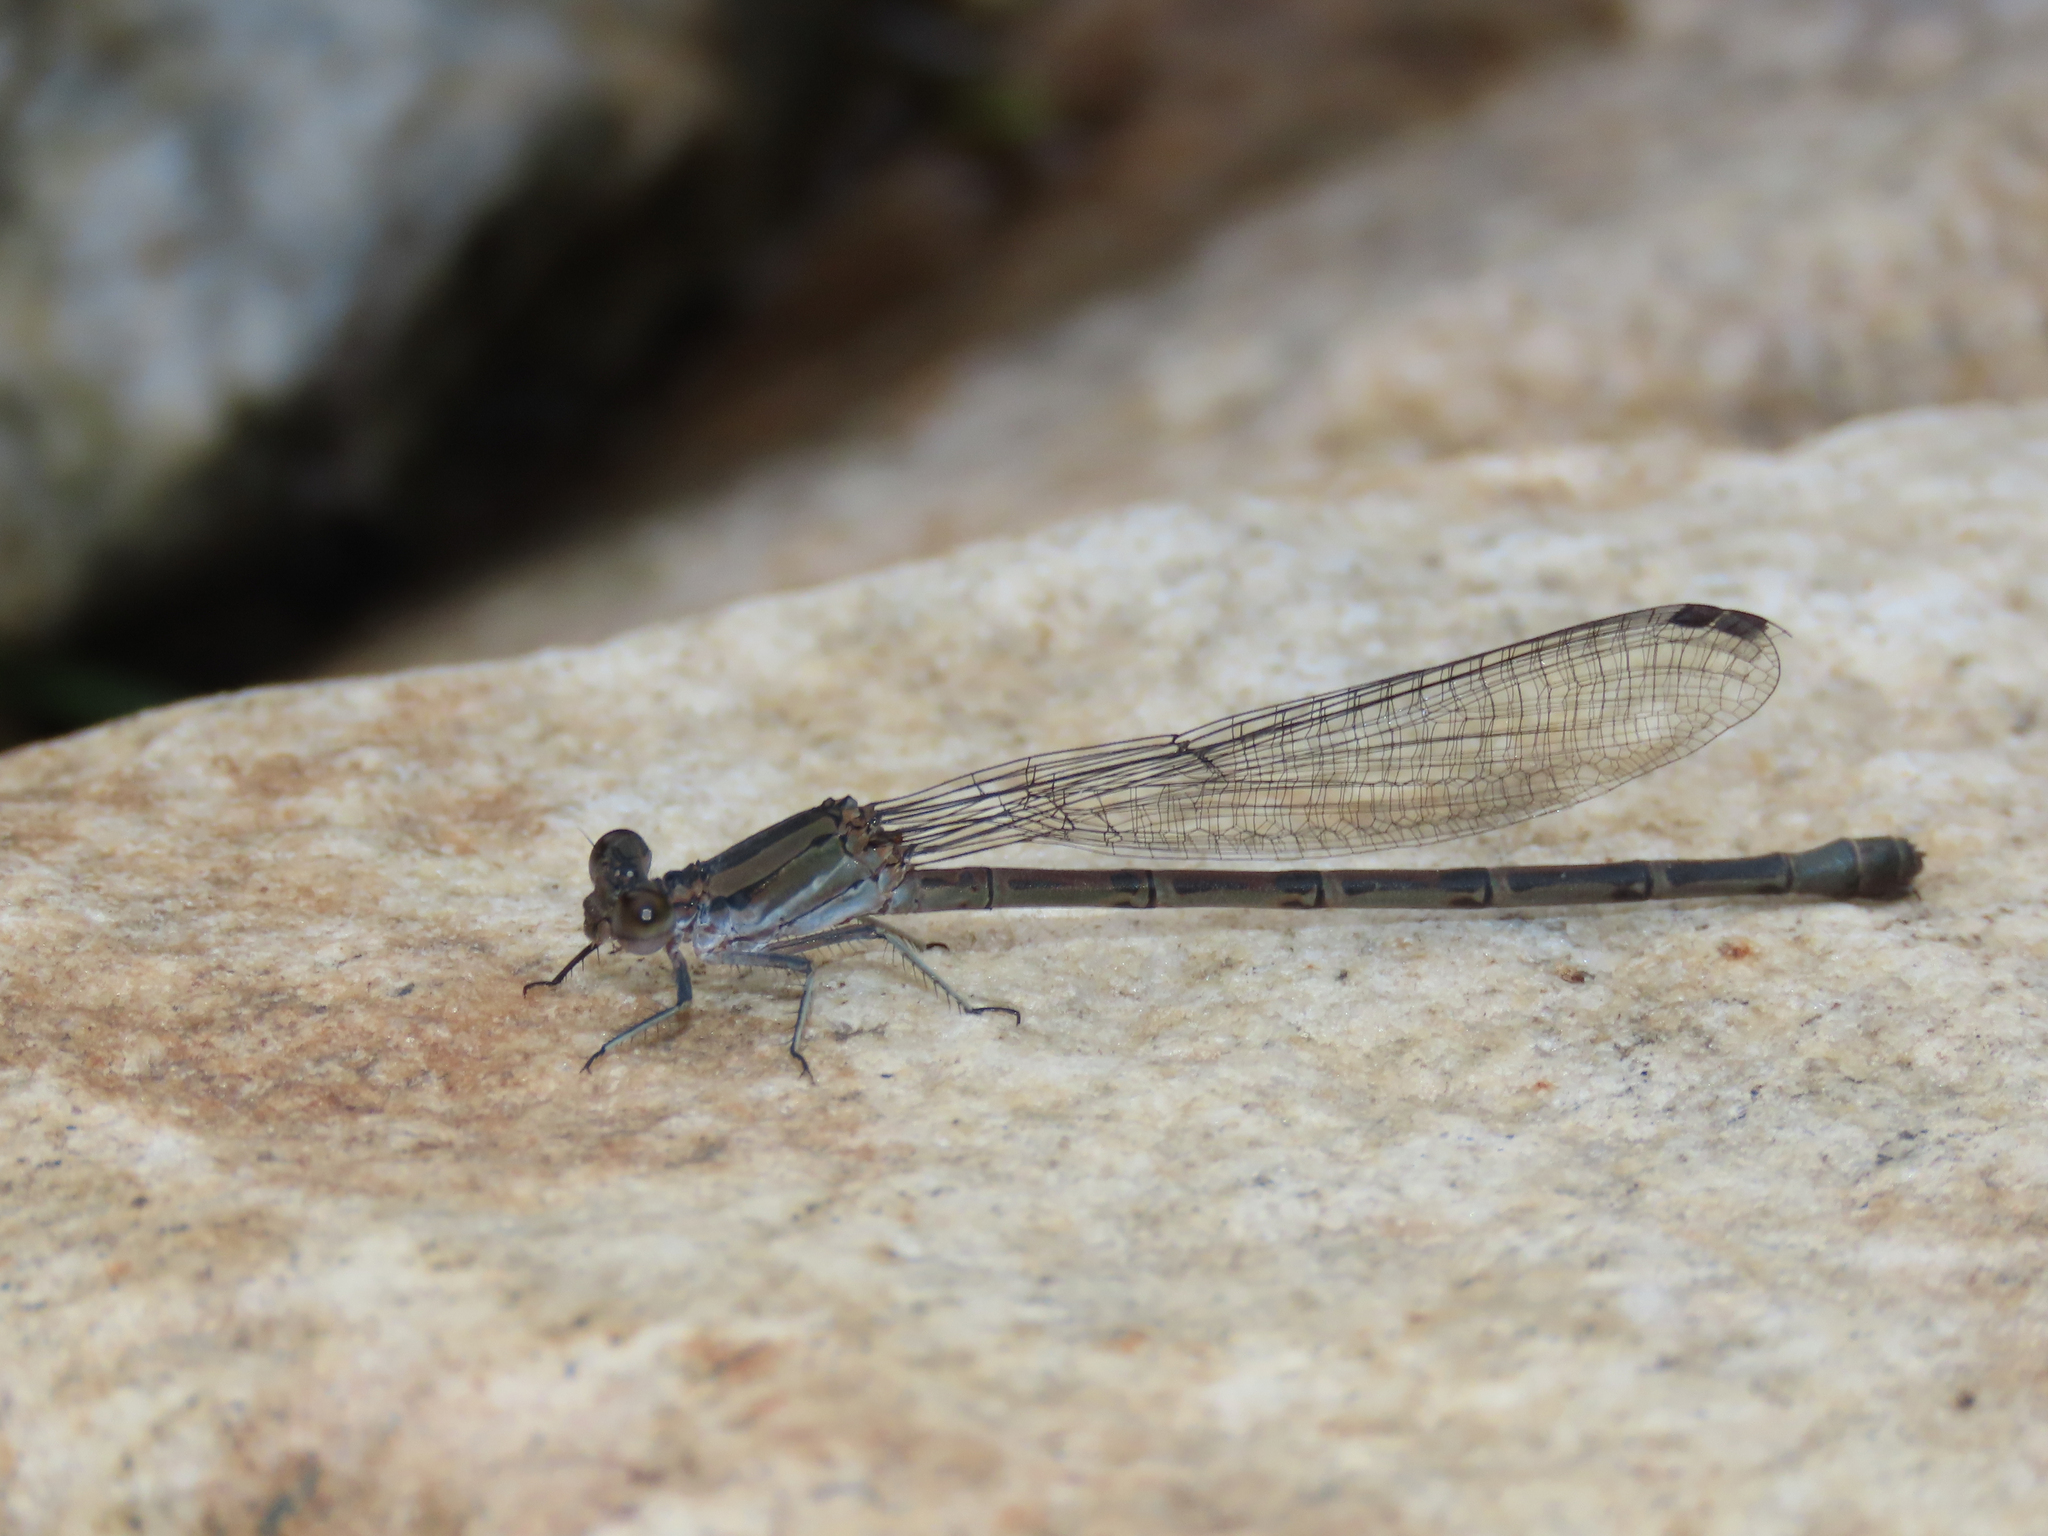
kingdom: Animalia
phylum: Arthropoda
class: Insecta
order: Odonata
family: Coenagrionidae
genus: Argia
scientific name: Argia funebris
